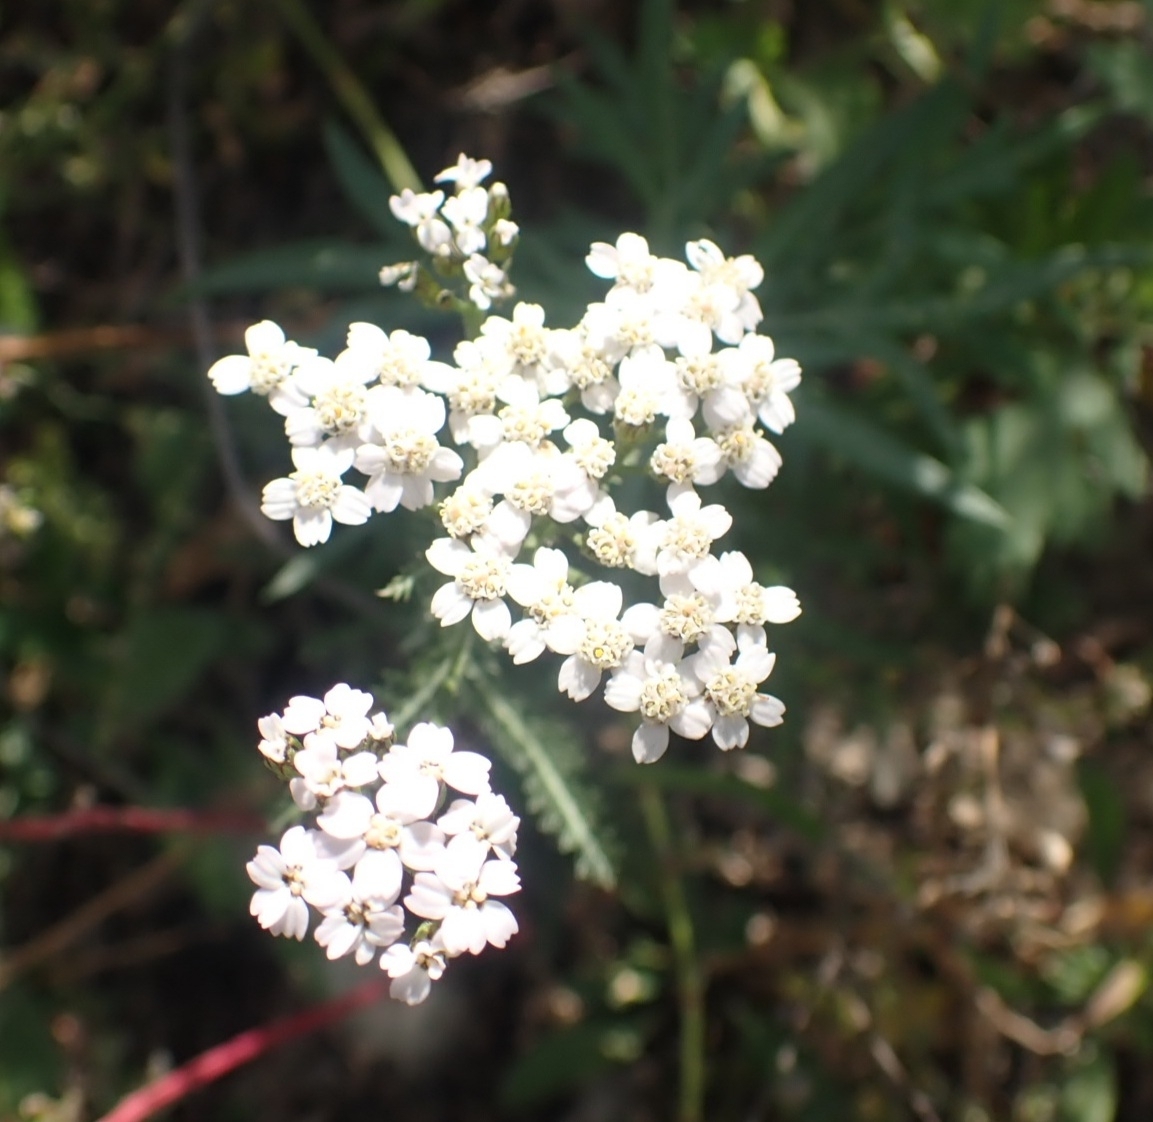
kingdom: Plantae
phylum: Tracheophyta
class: Magnoliopsida
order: Asterales
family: Asteraceae
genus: Achillea
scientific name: Achillea millefolium
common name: Yarrow
